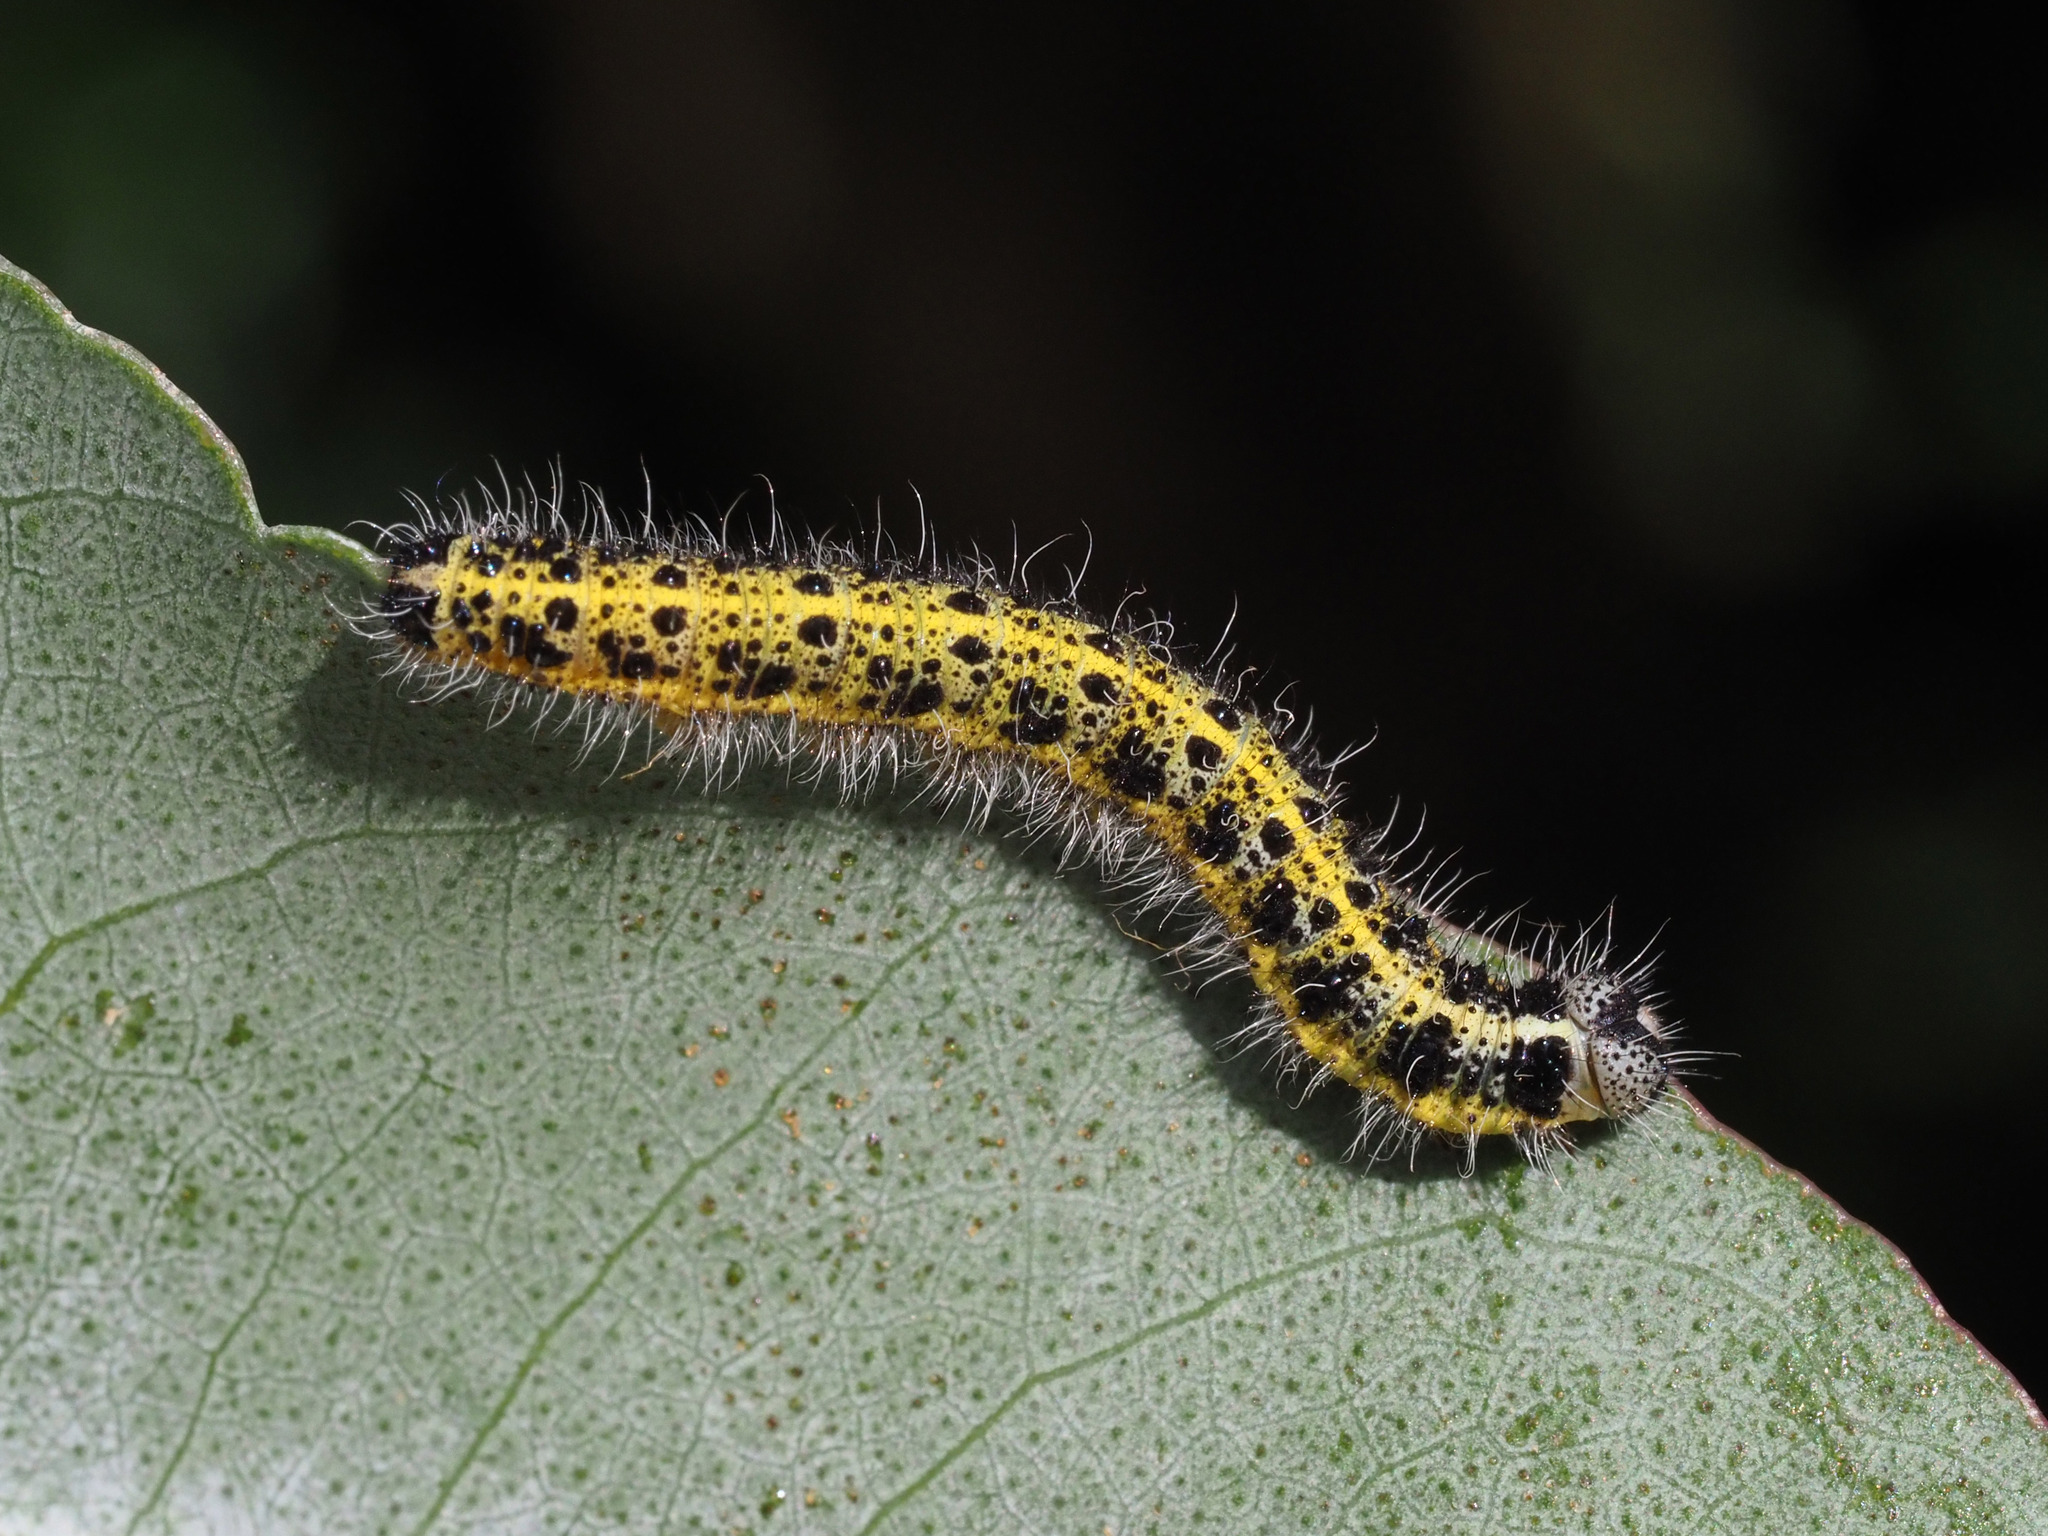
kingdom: Animalia
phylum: Arthropoda
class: Insecta
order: Lepidoptera
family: Pieridae
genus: Pieris
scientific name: Pieris brassicae
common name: Large white
